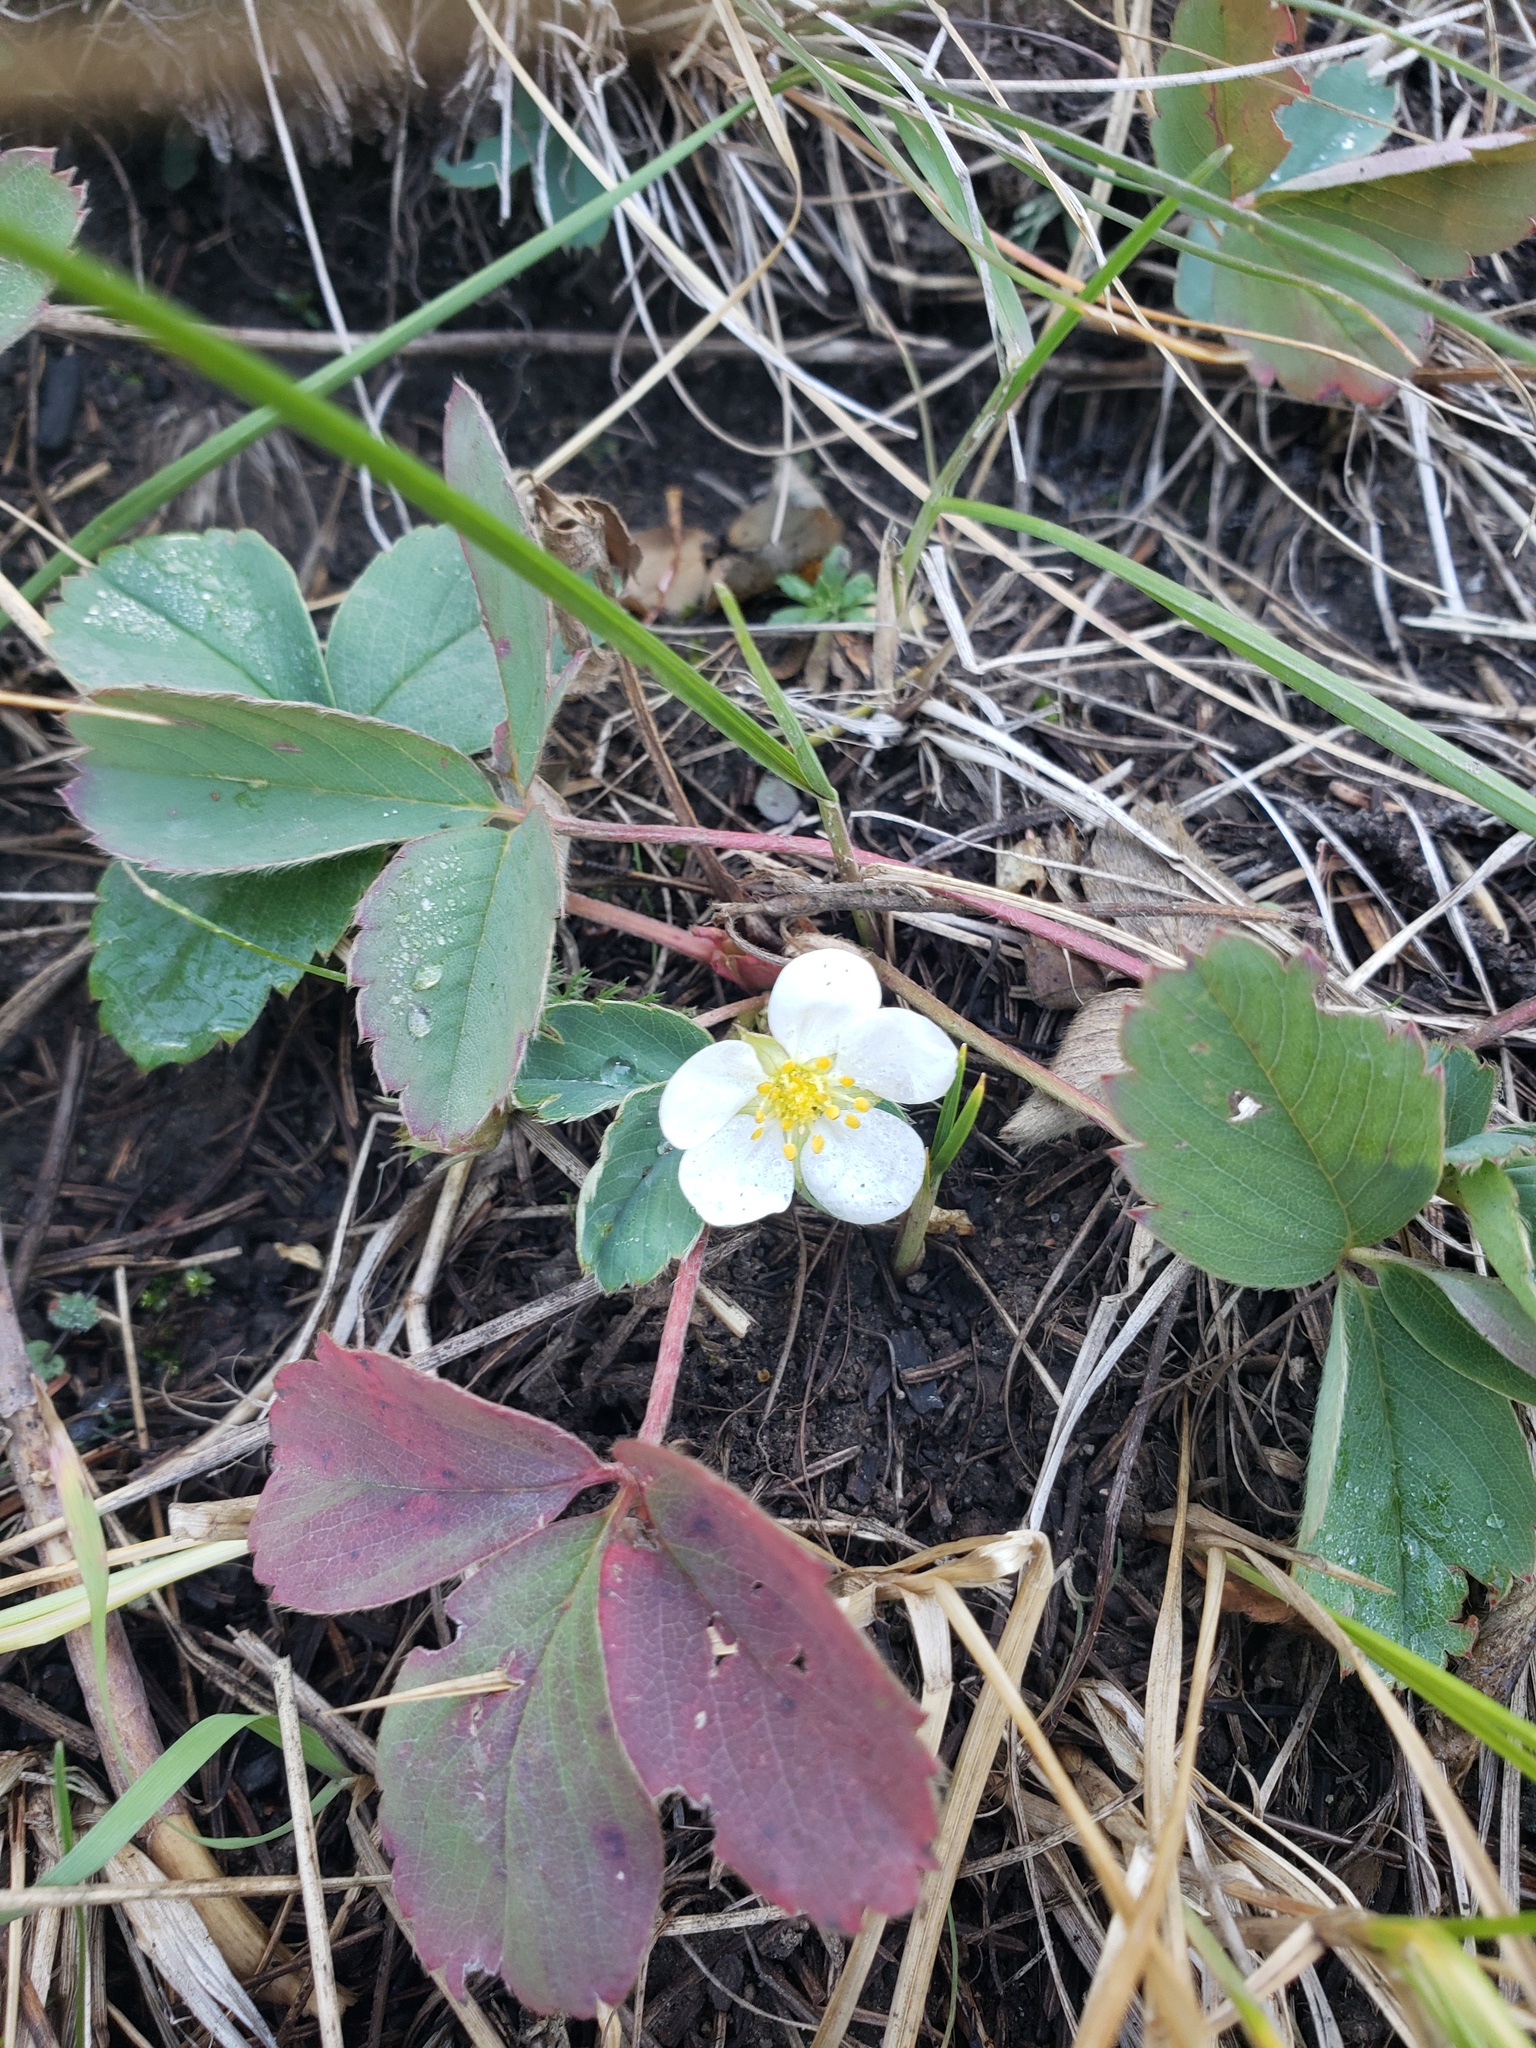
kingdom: Plantae
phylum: Tracheophyta
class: Magnoliopsida
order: Rosales
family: Rosaceae
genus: Fragaria
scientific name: Fragaria virginiana
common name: Thickleaved wild strawberry
